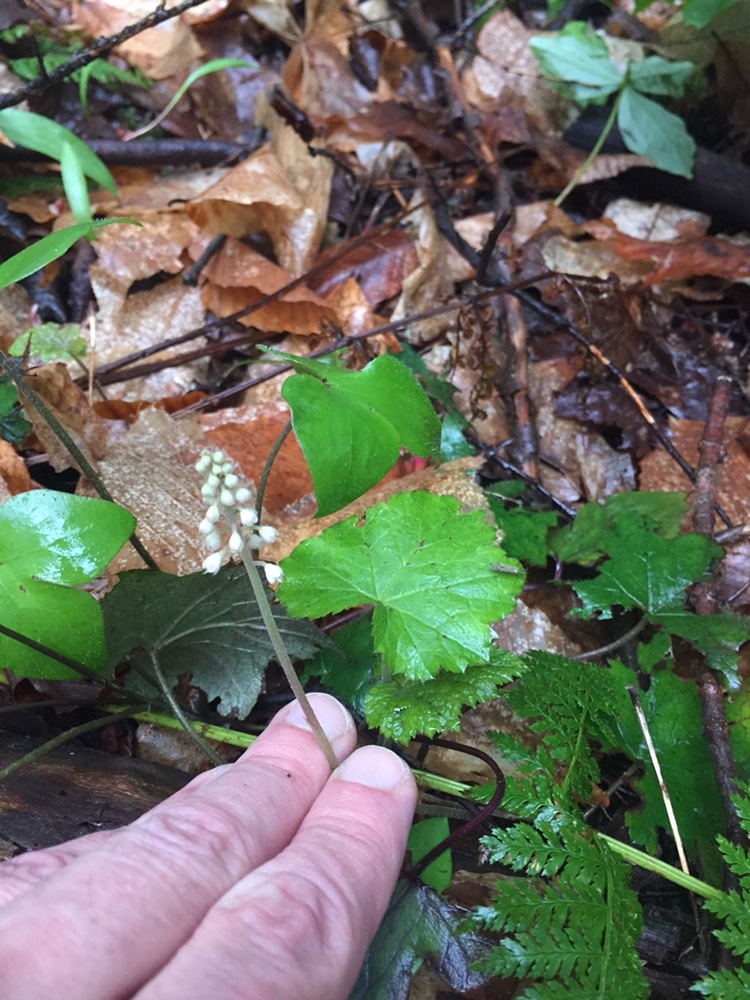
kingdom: Plantae
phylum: Tracheophyta
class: Magnoliopsida
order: Saxifragales
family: Saxifragaceae
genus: Tiarella
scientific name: Tiarella stolonifera
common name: Stoloniferous foamflower
